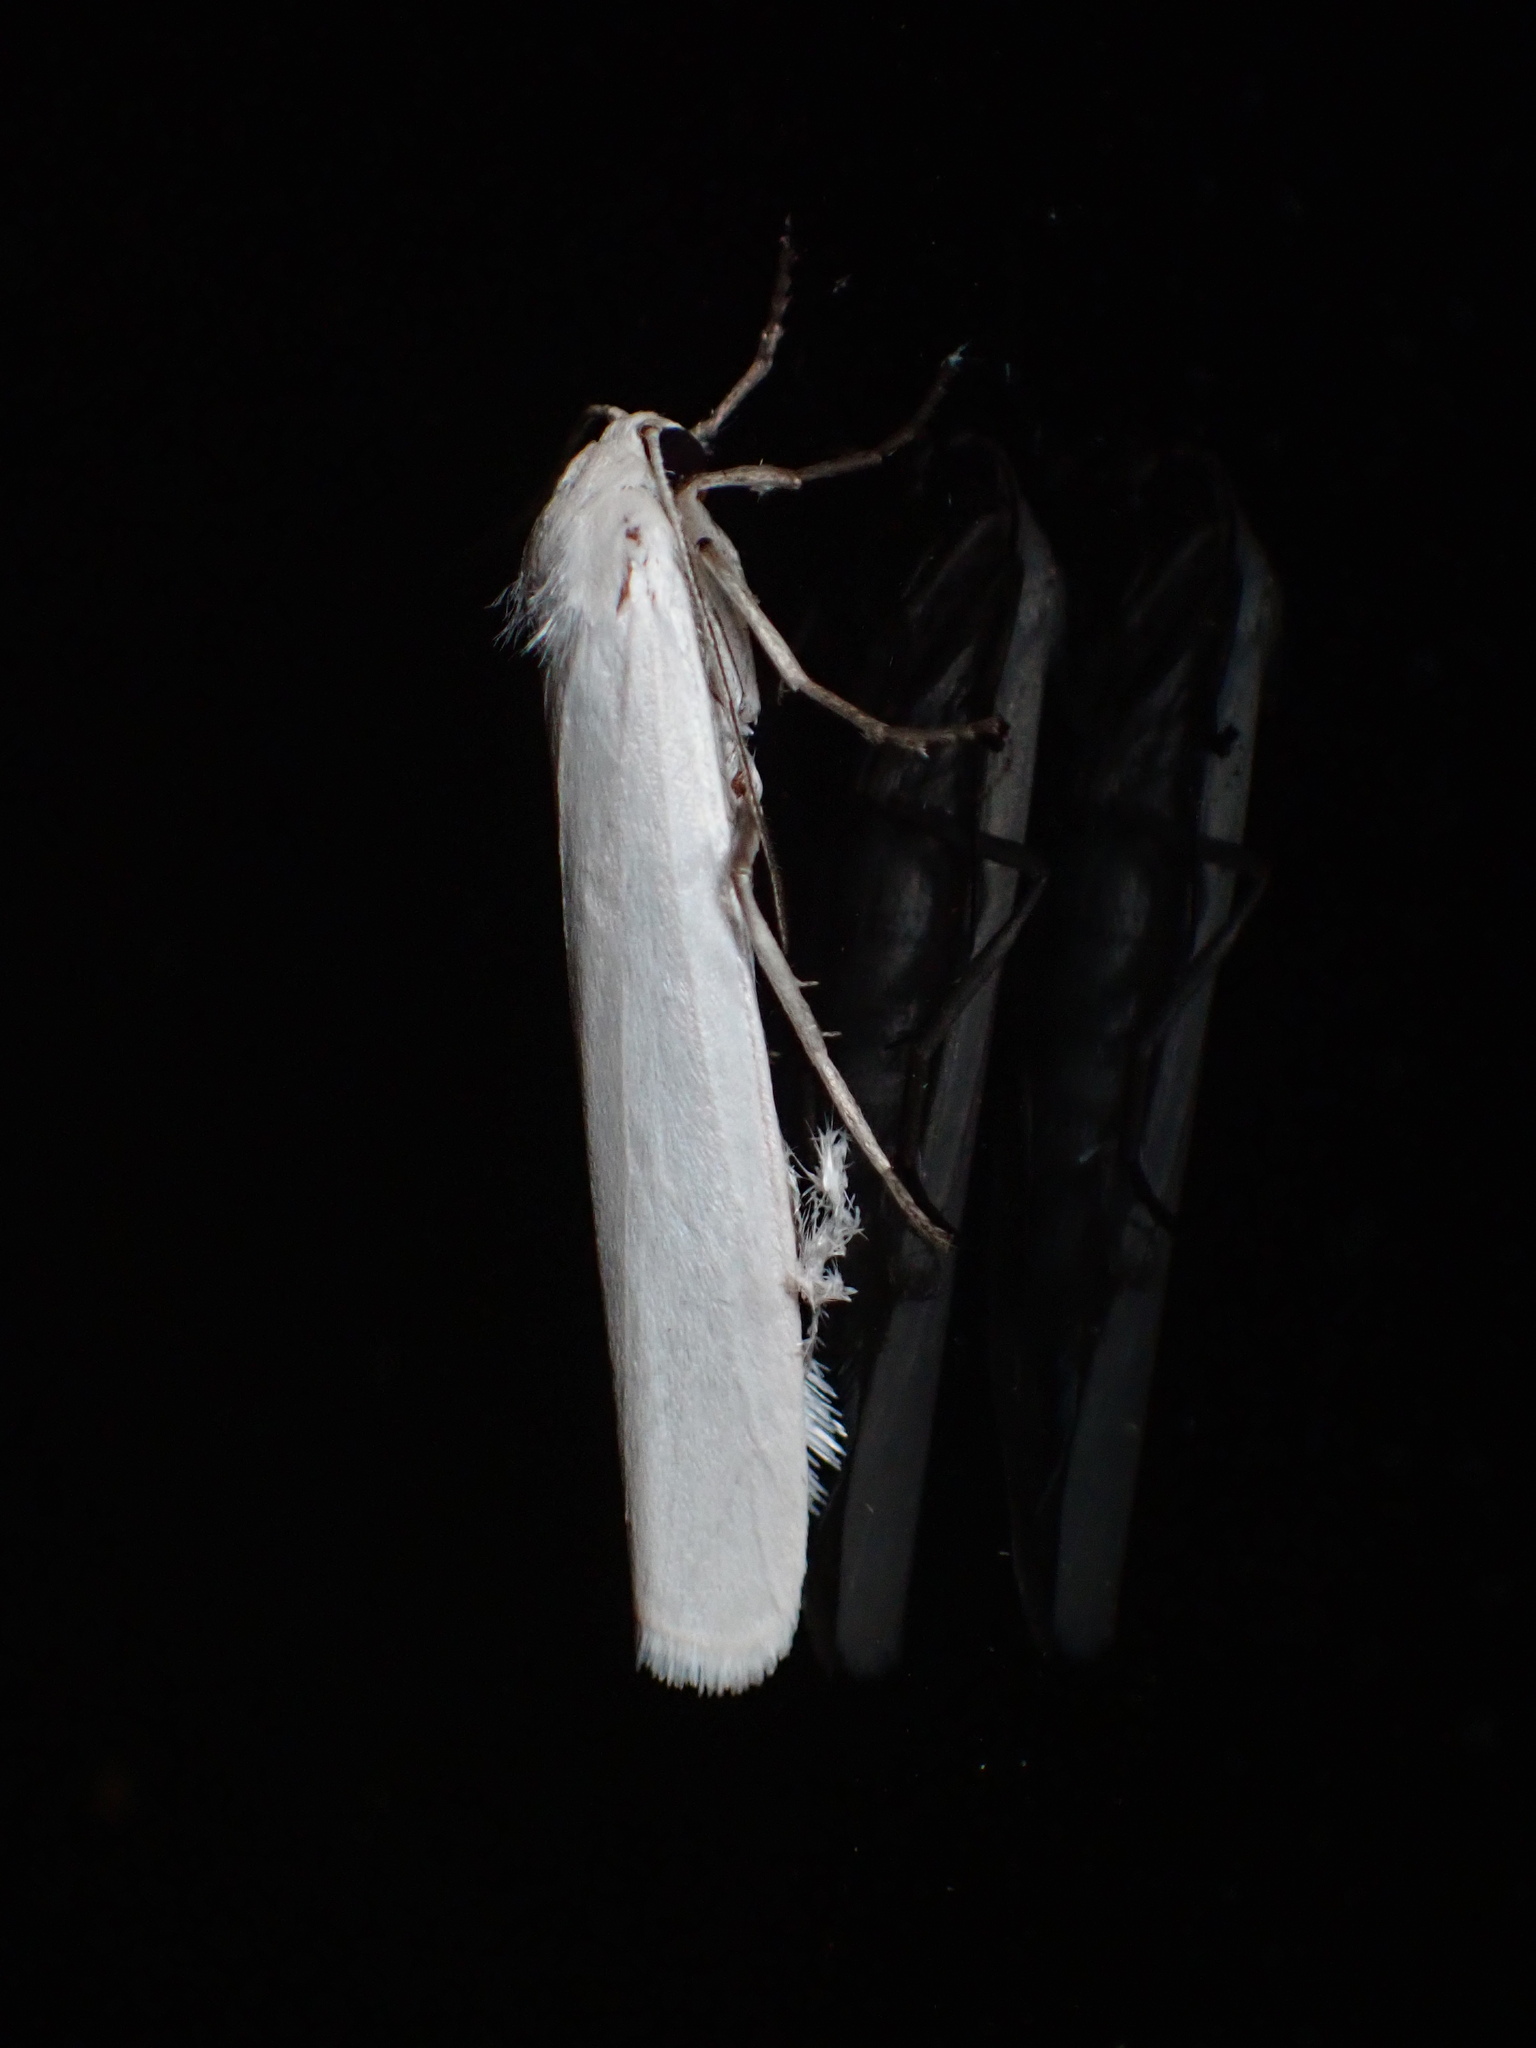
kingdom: Animalia
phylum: Arthropoda
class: Insecta
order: Lepidoptera
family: Erebidae
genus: Crambidia
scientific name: Crambidia casta
